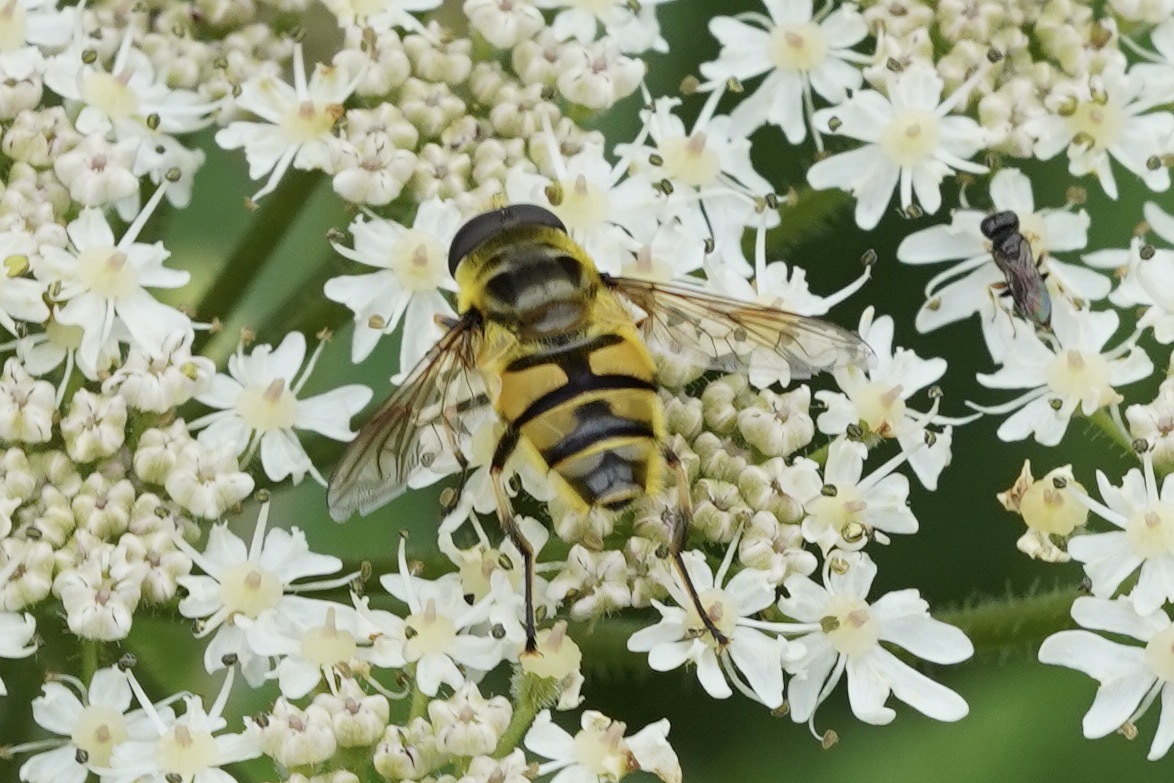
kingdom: Animalia
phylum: Arthropoda
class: Insecta
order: Diptera
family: Syrphidae
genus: Myathropa
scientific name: Myathropa florea
